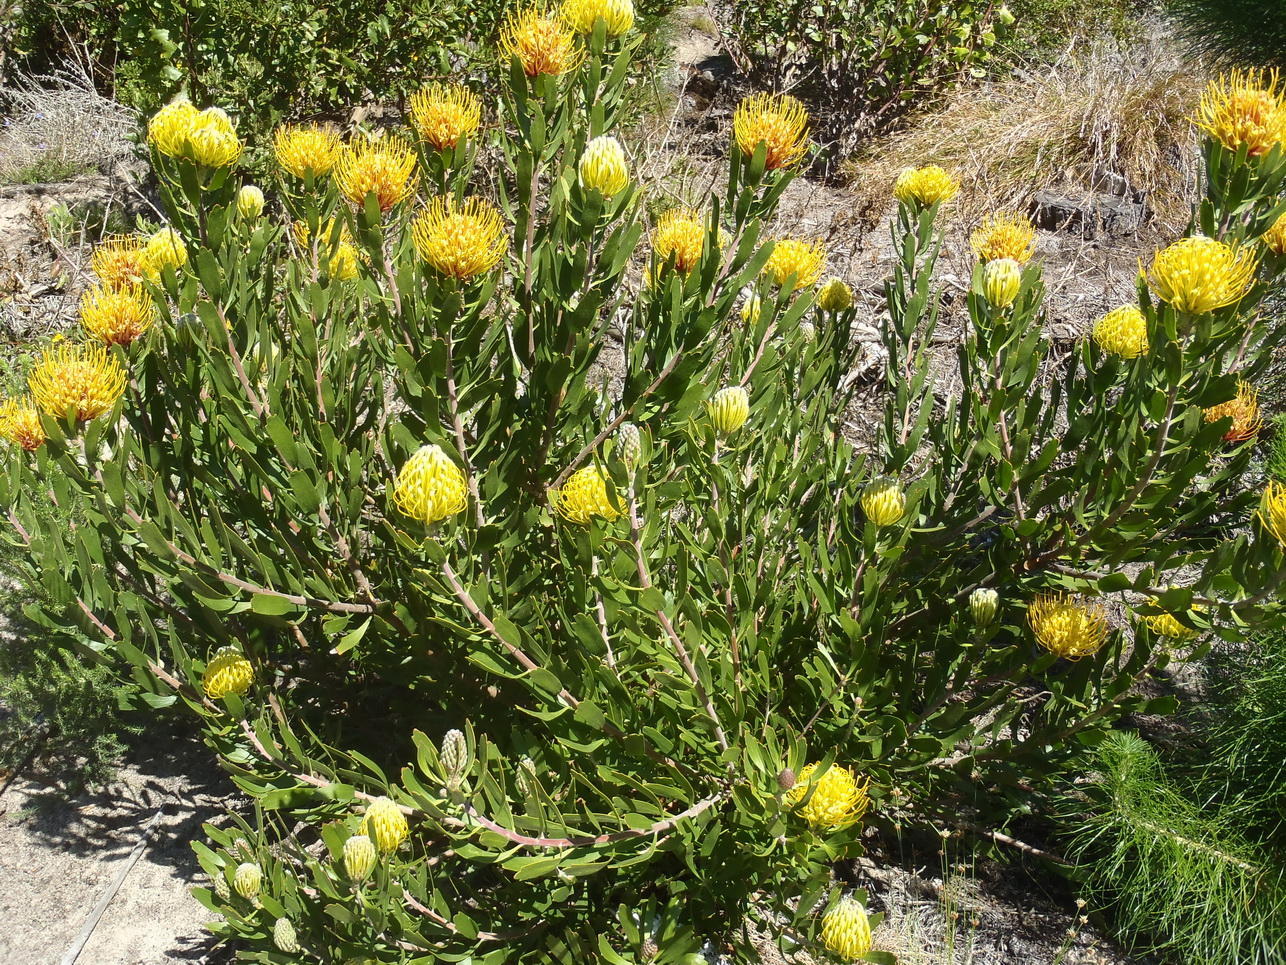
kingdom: Plantae
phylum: Tracheophyta
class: Magnoliopsida
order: Proteales
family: Proteaceae
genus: Leucospermum
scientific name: Leucospermum cuneiforme
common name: Common pincushion
